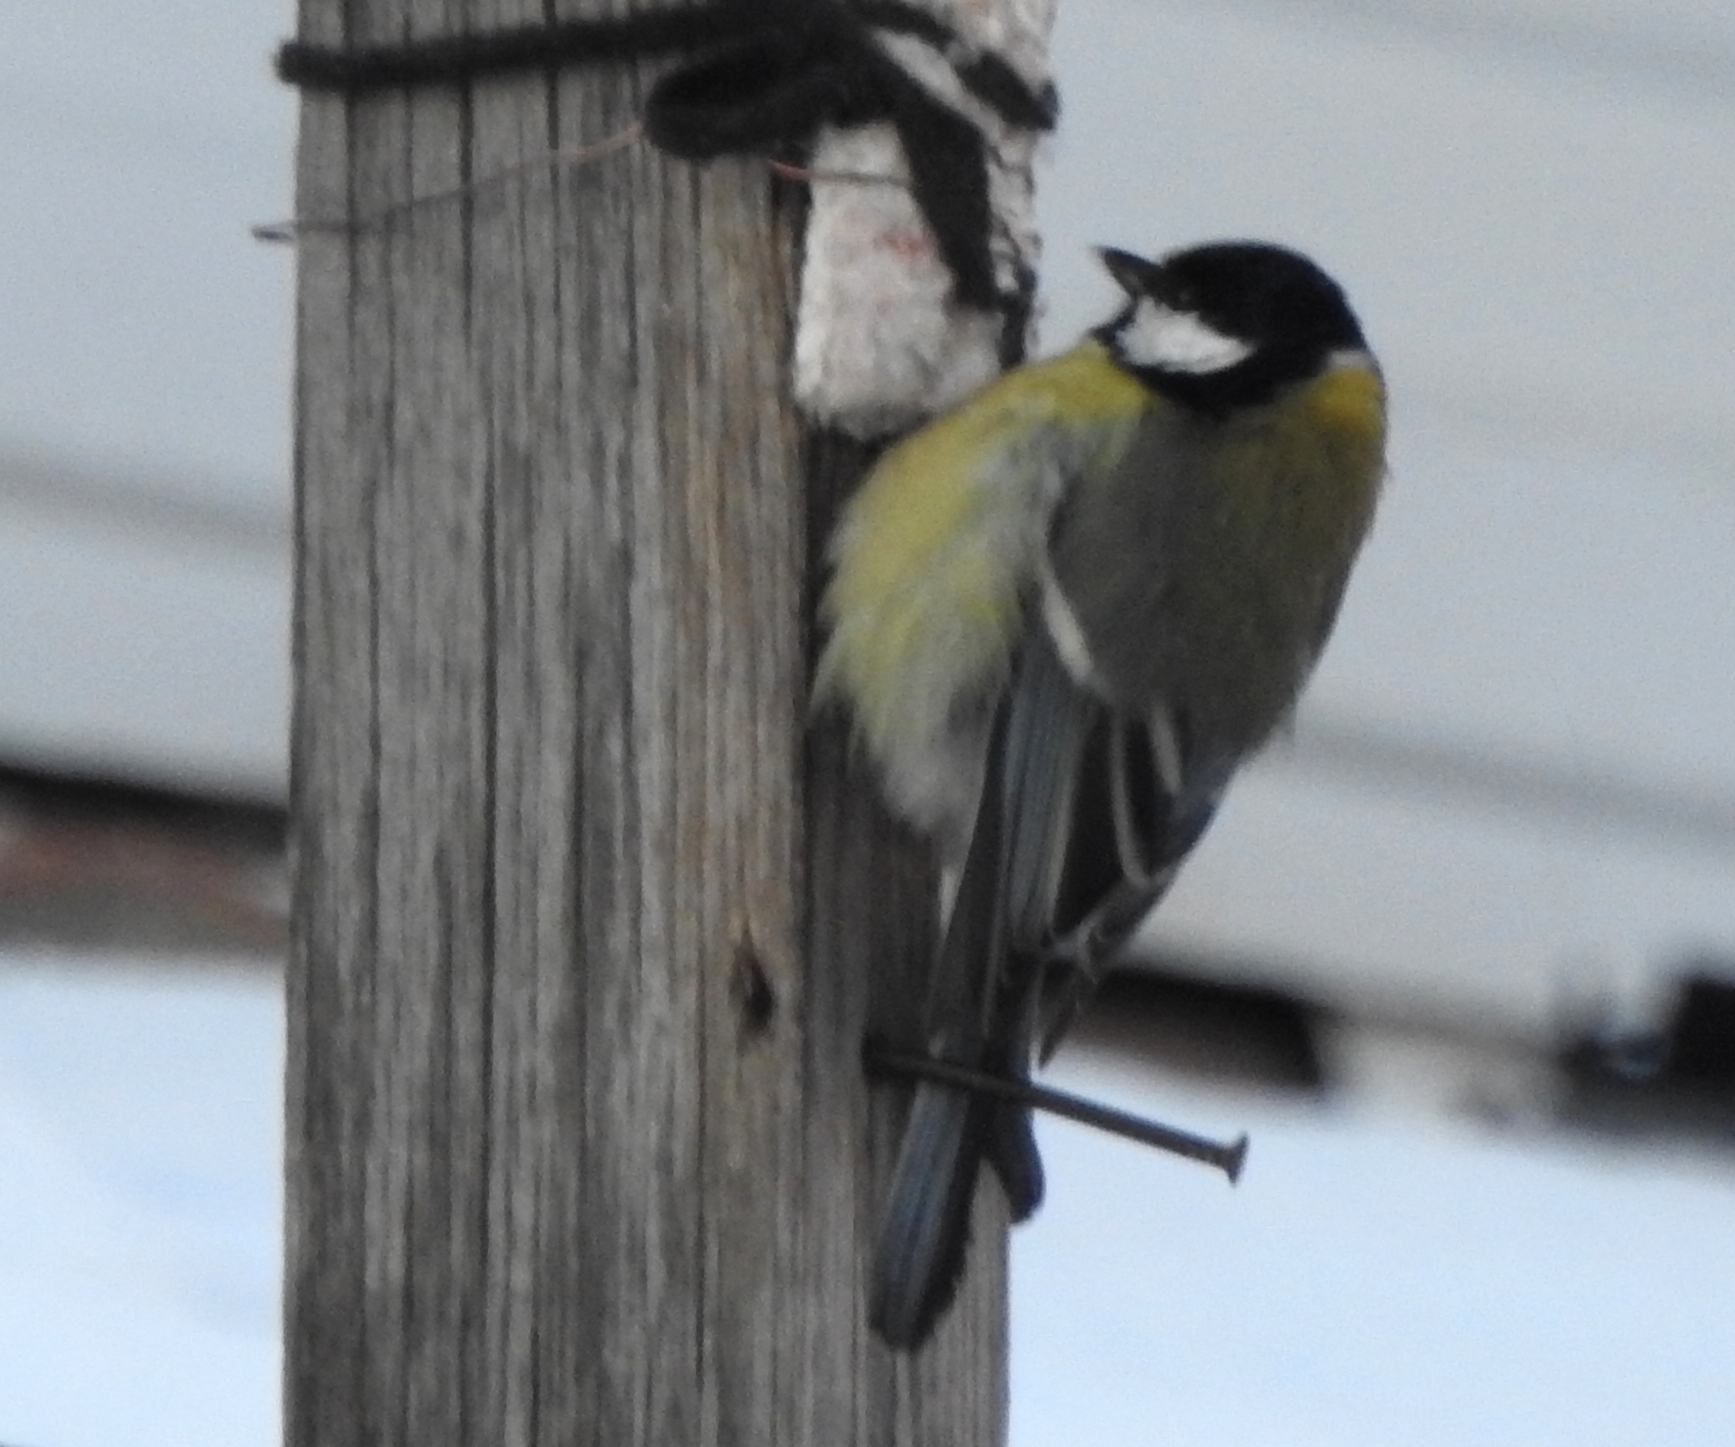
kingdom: Animalia
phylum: Chordata
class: Aves
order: Passeriformes
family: Paridae
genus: Parus
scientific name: Parus major
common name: Great tit
